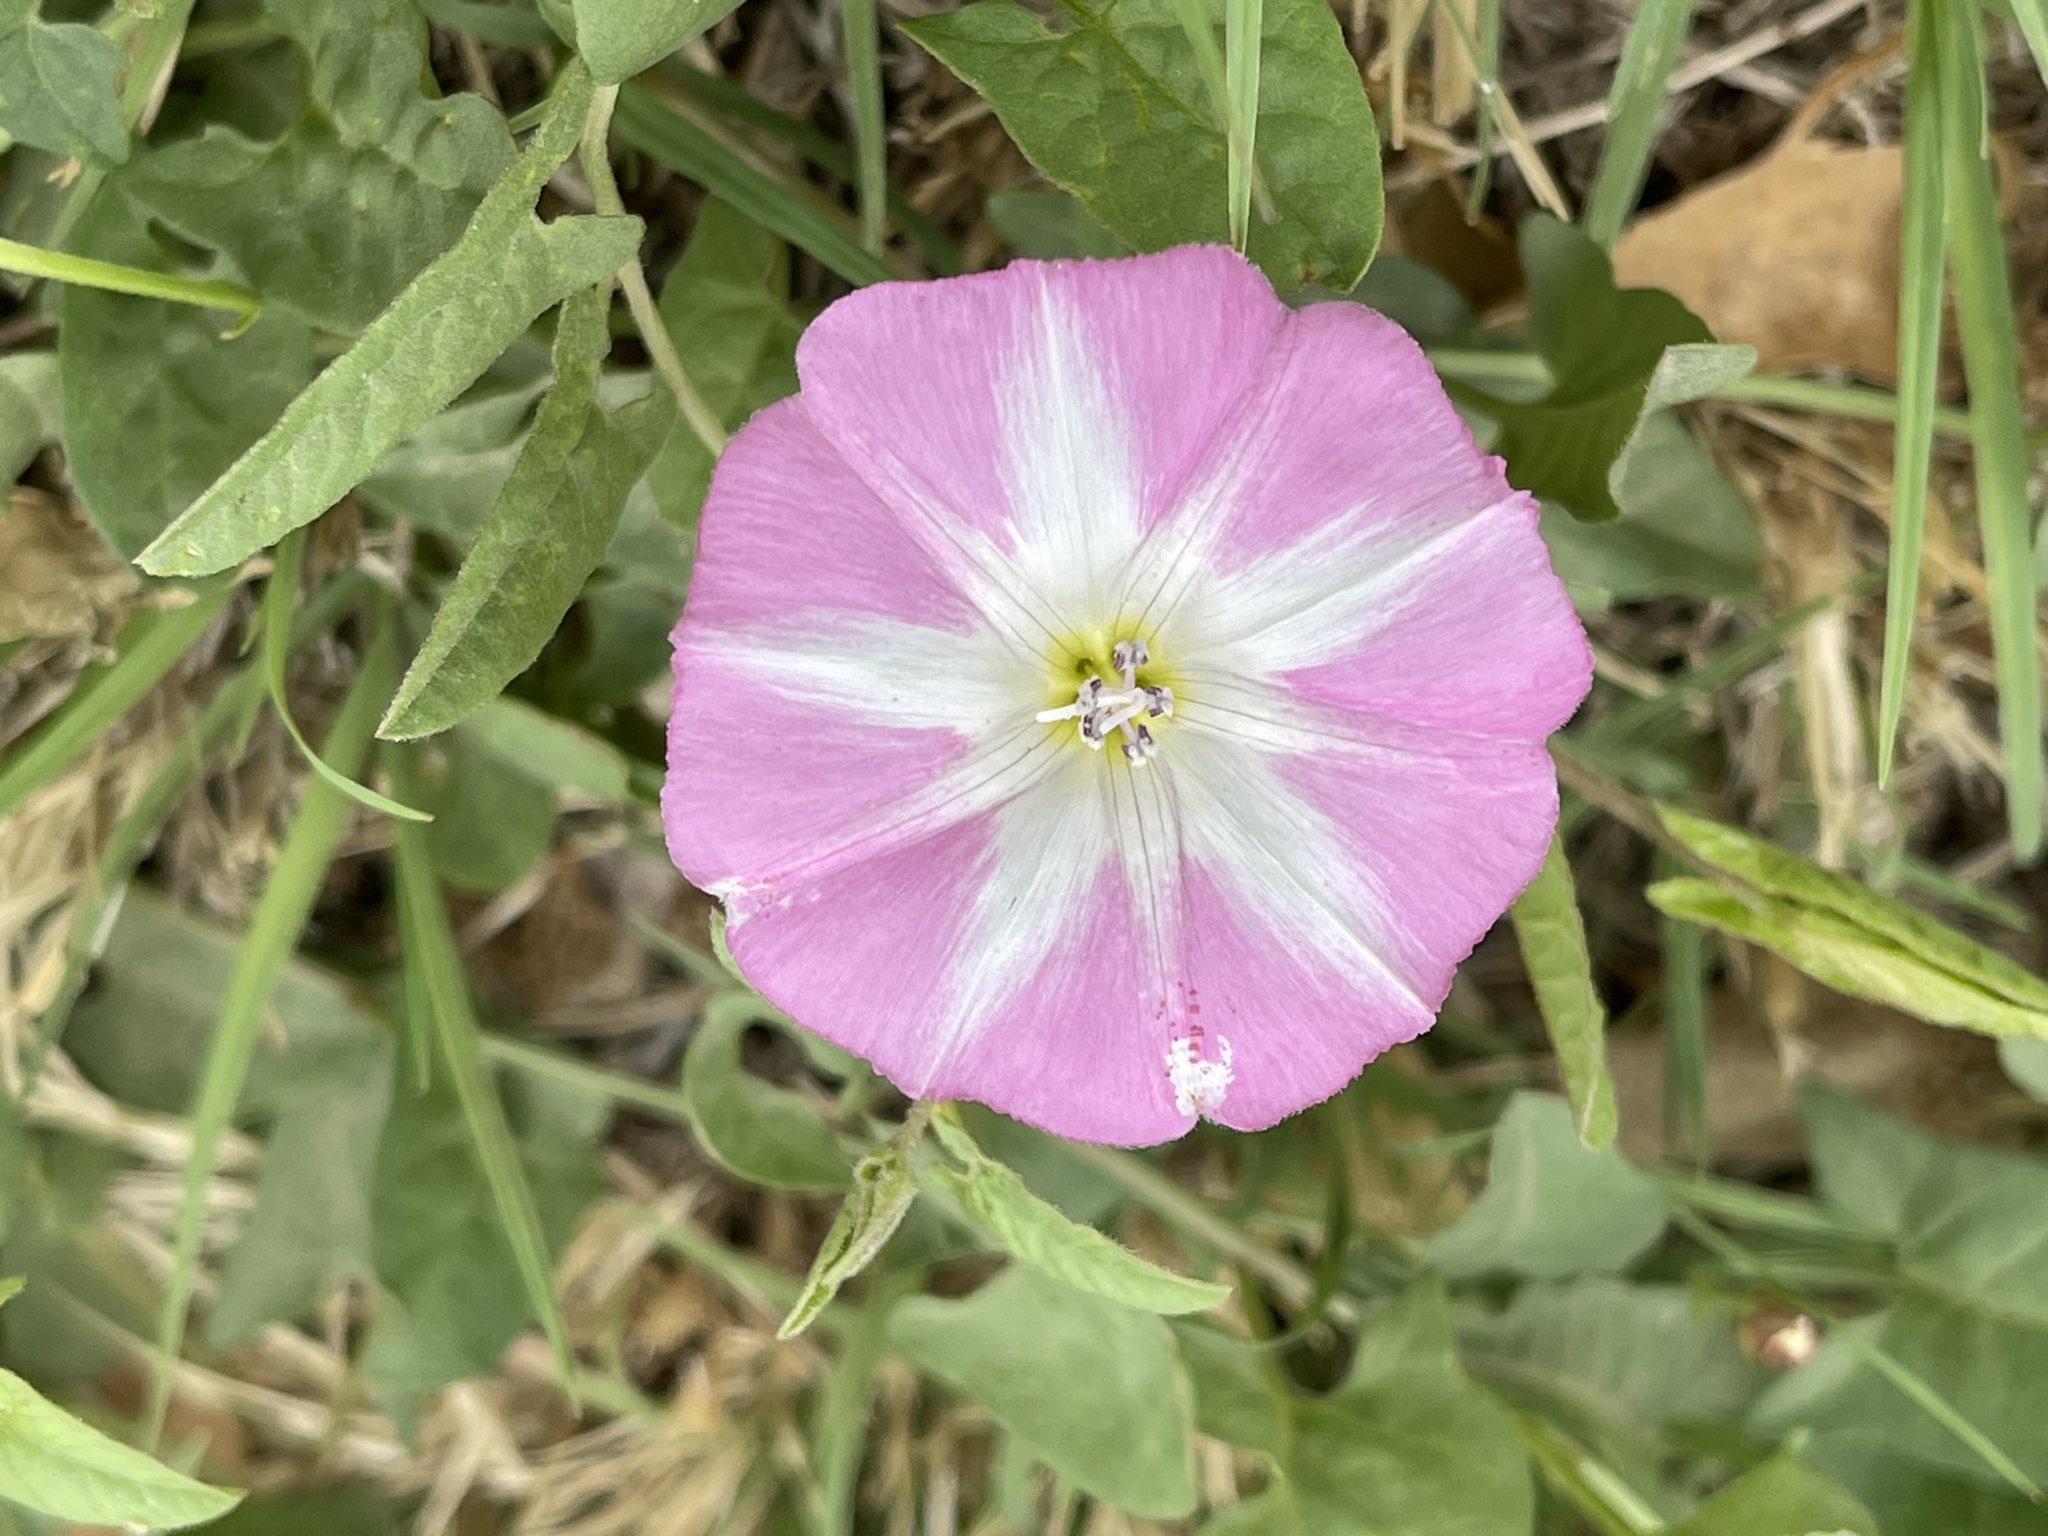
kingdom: Plantae
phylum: Tracheophyta
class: Magnoliopsida
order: Solanales
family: Convolvulaceae
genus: Convolvulus
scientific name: Convolvulus arvensis
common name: Field bindweed
